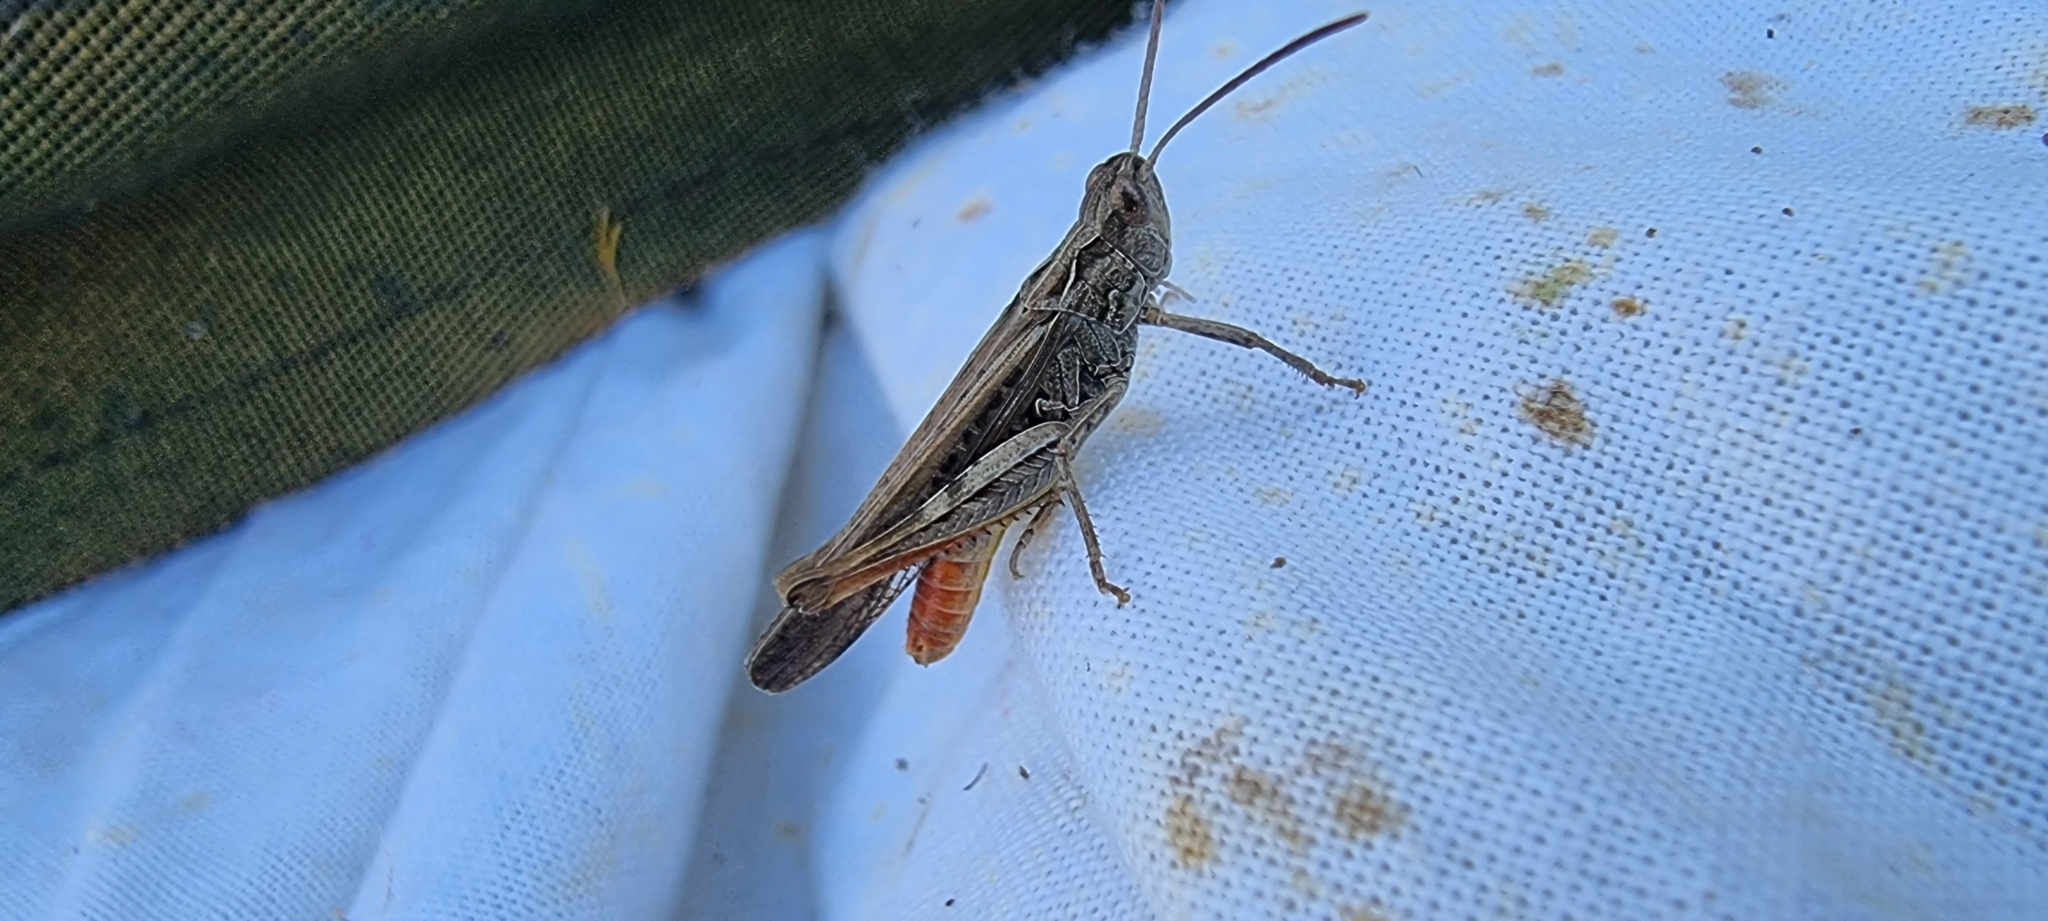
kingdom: Animalia
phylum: Arthropoda
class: Insecta
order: Orthoptera
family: Acrididae
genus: Chorthippus
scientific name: Chorthippus brunneus
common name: Field grasshopper
